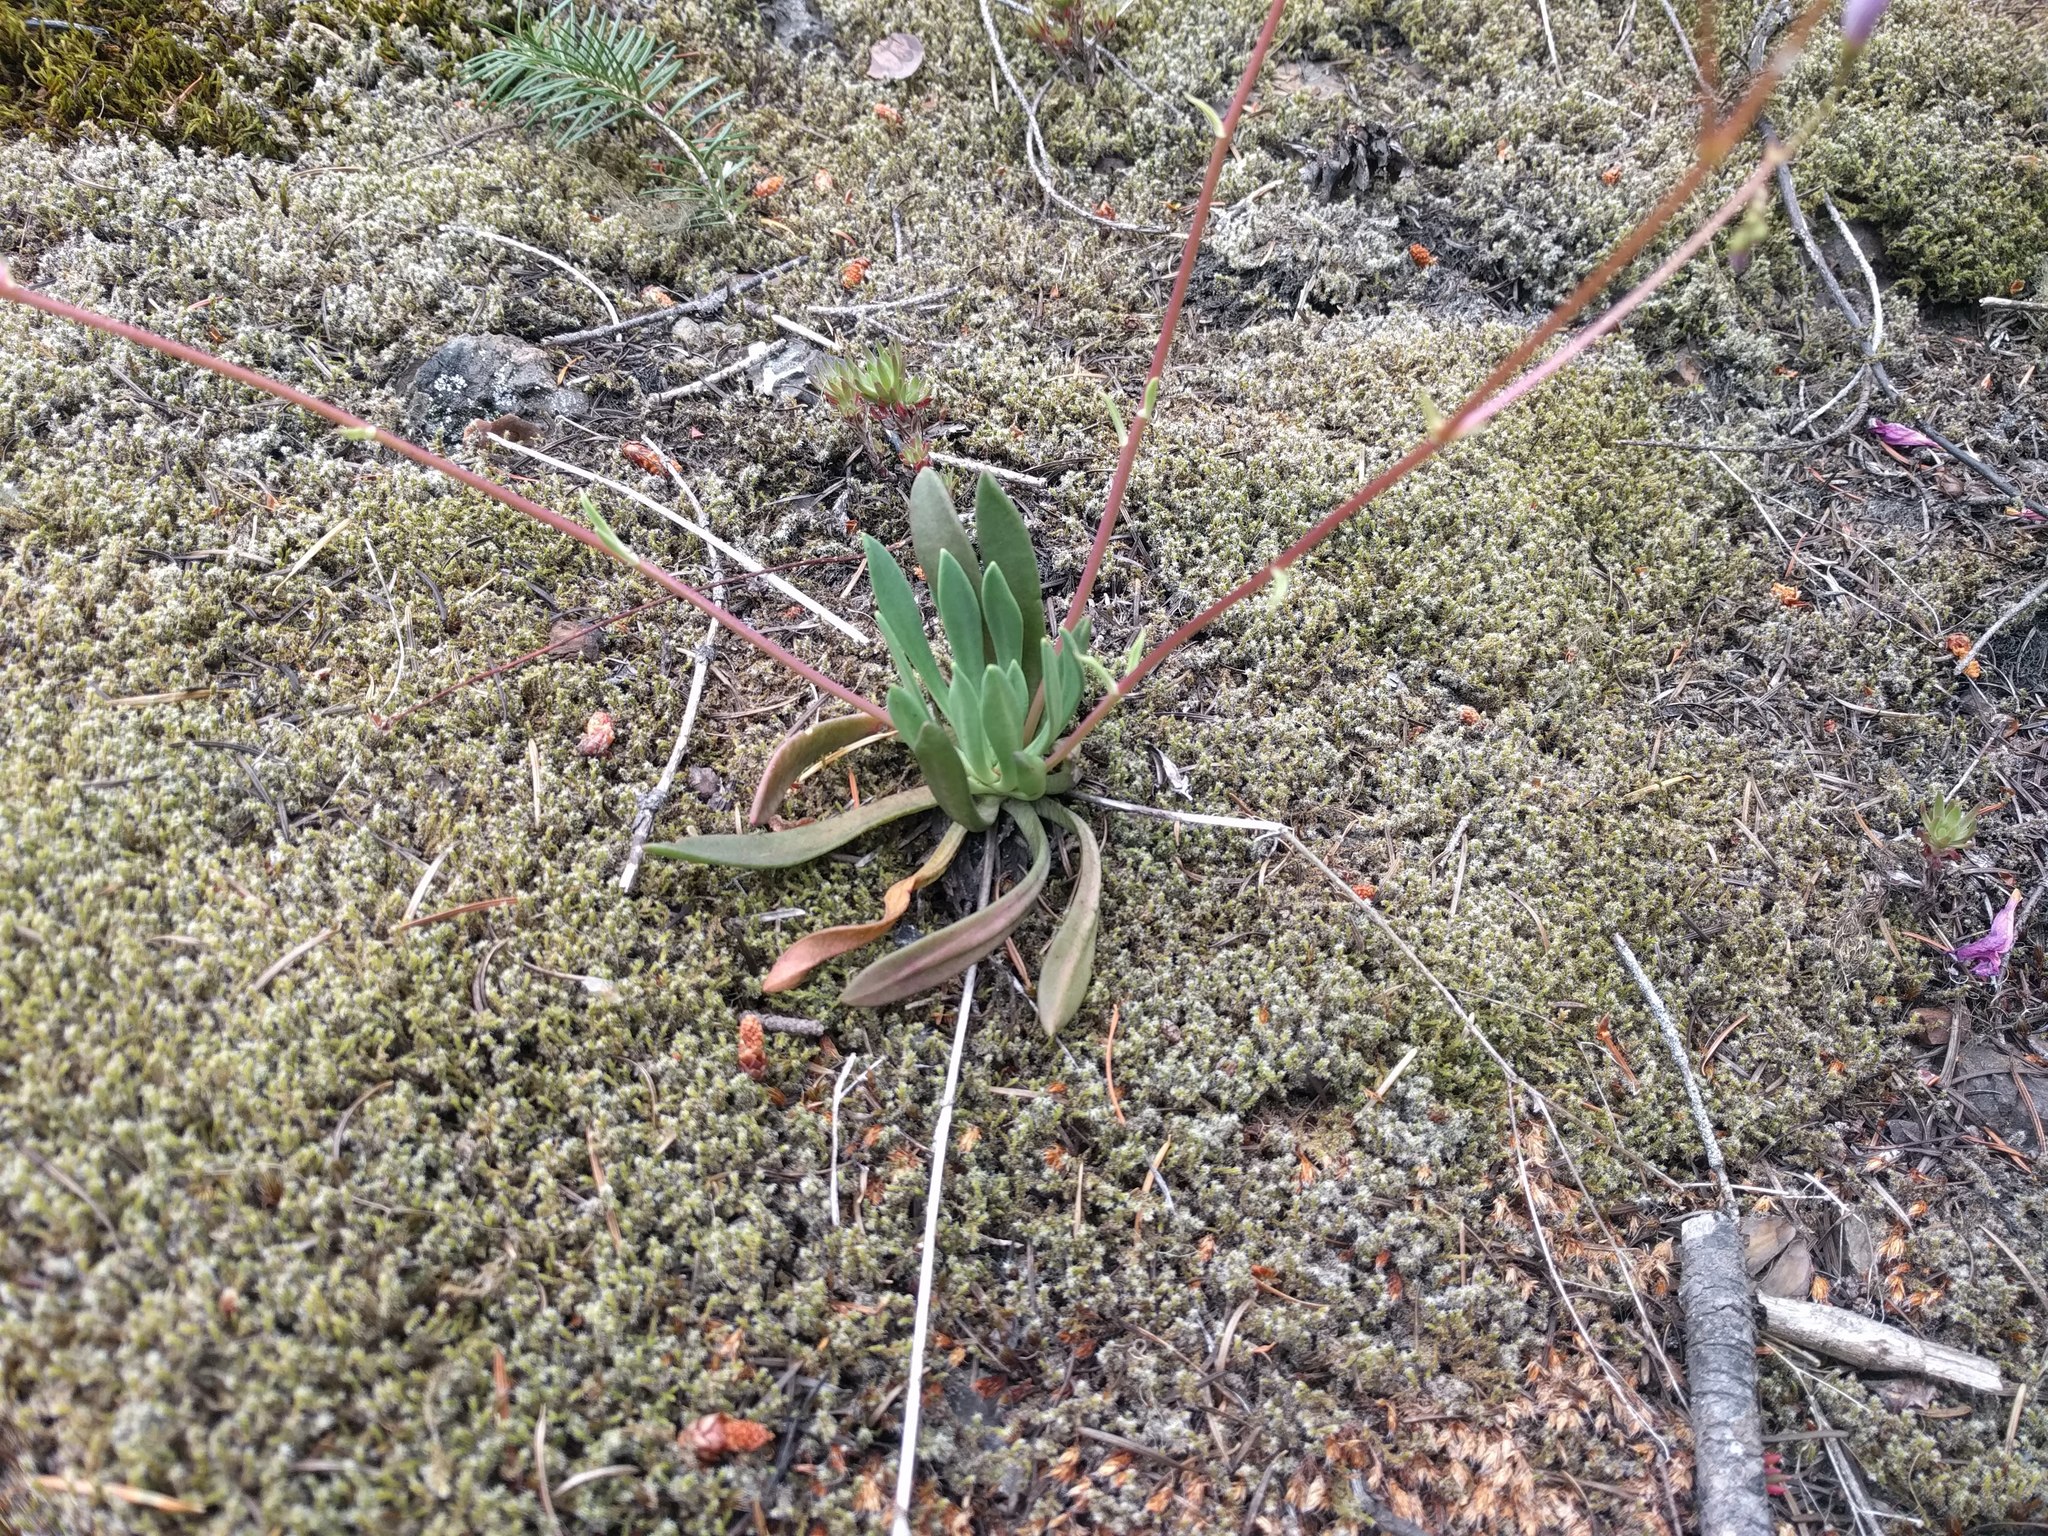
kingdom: Plantae
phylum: Tracheophyta
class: Magnoliopsida
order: Caryophyllales
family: Montiaceae
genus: Lewisia
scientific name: Lewisia columbiana
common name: Columbia lewisia
